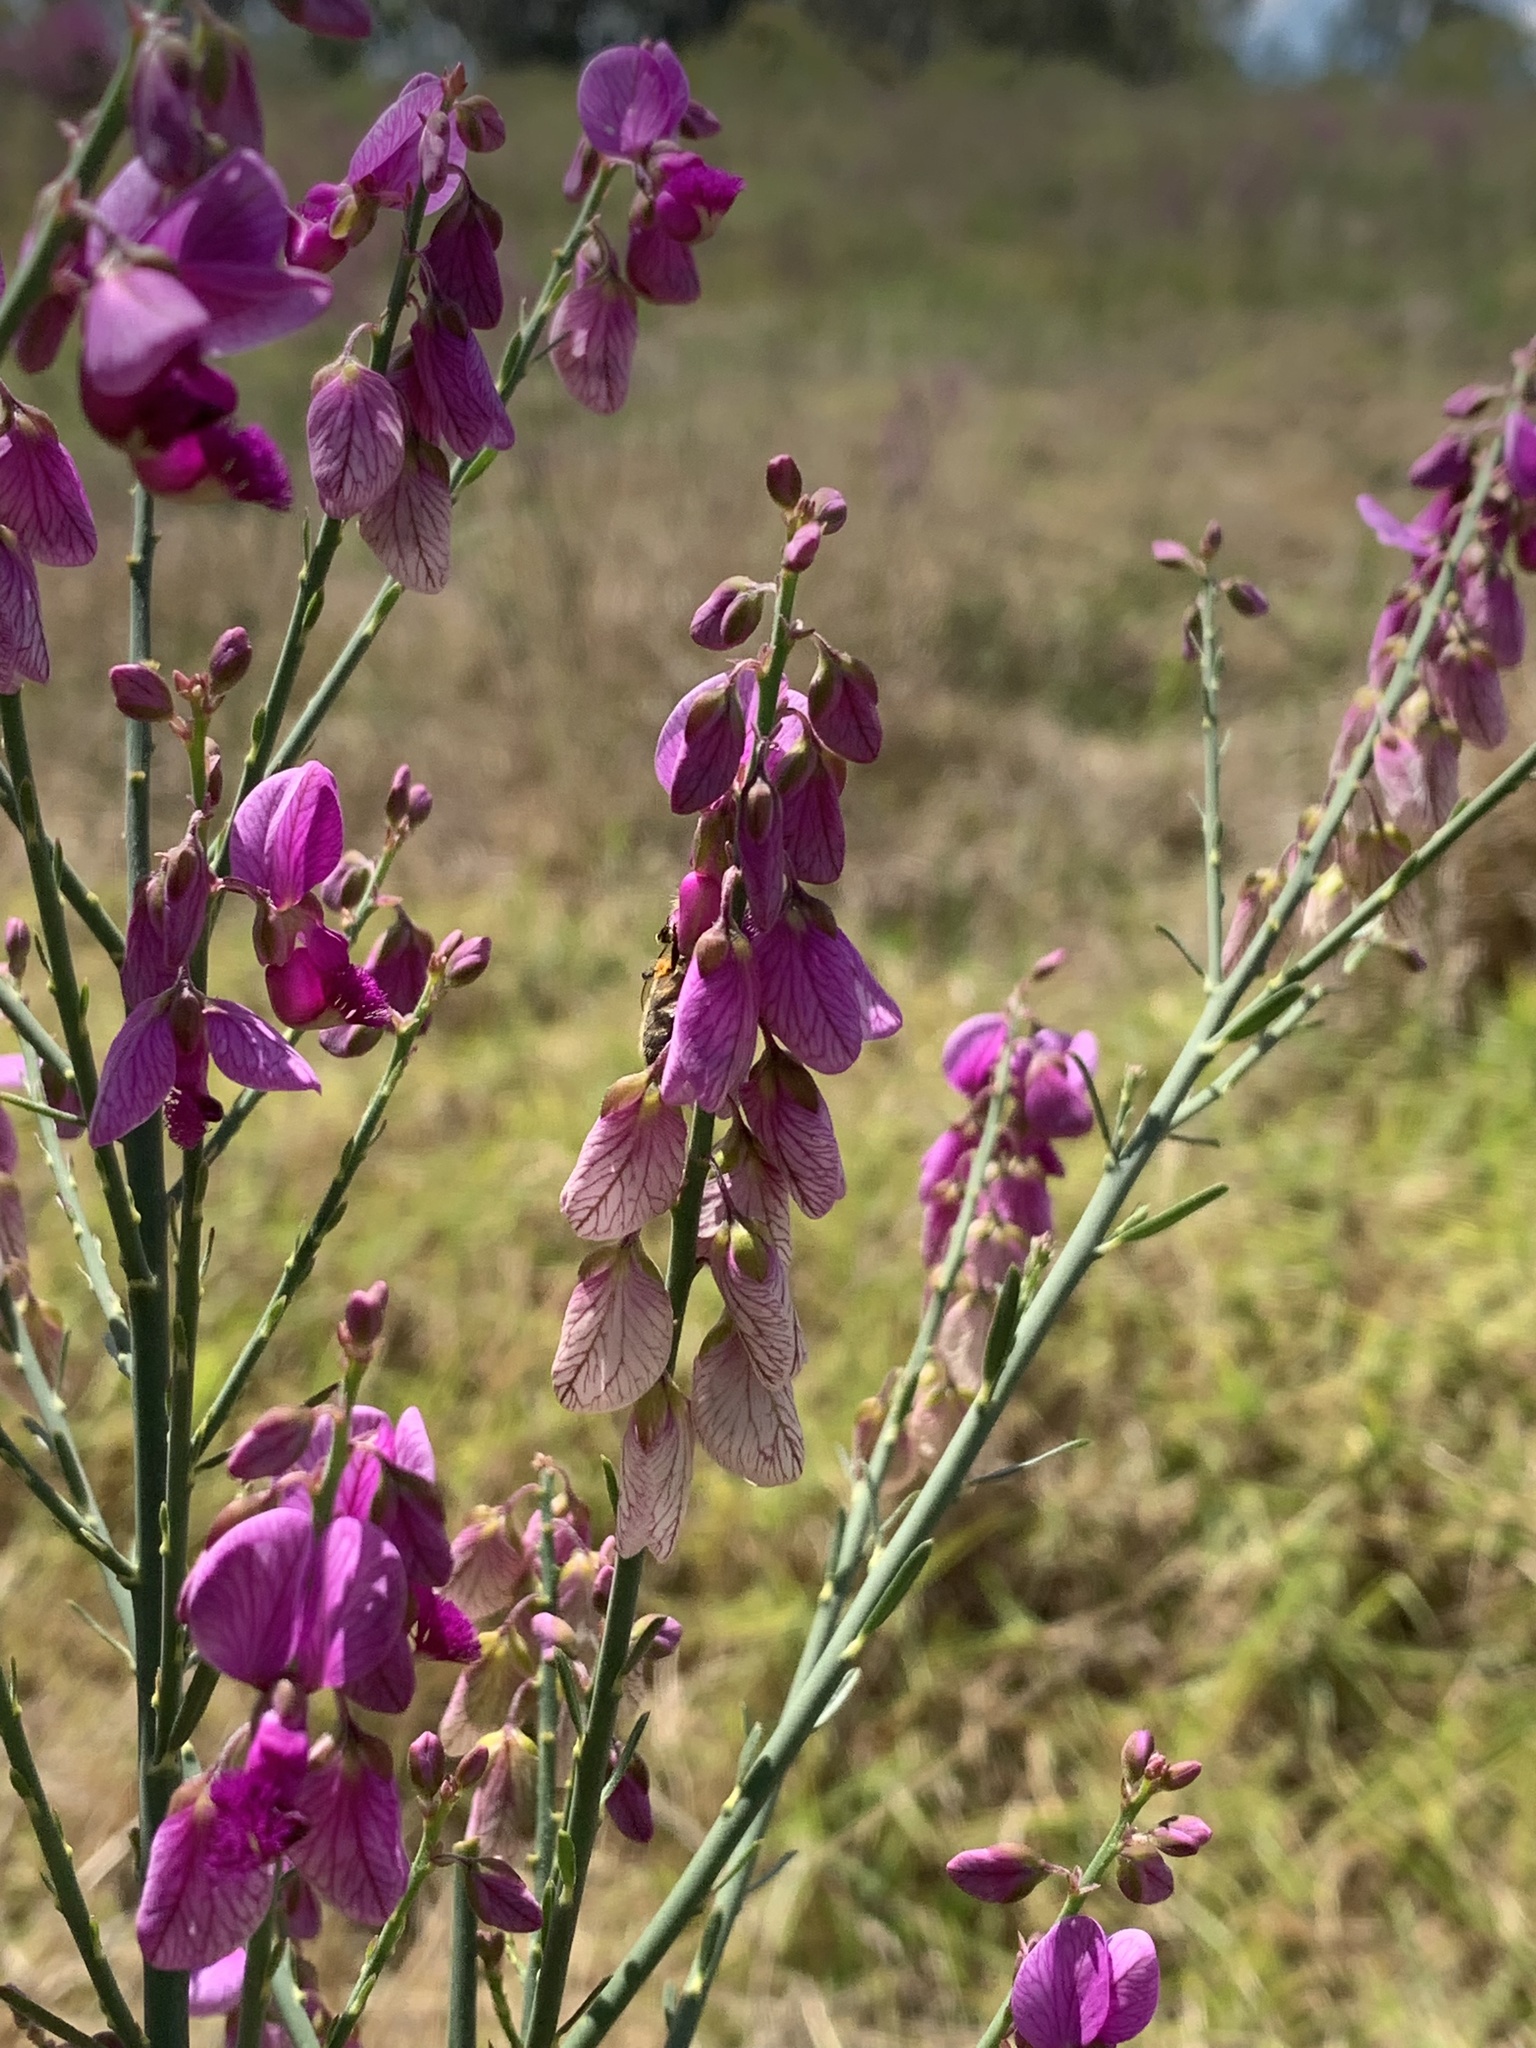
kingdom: Plantae
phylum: Tracheophyta
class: Magnoliopsida
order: Fabales
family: Polygalaceae
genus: Polygala
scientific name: Polygala virgata
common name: Milkwort
